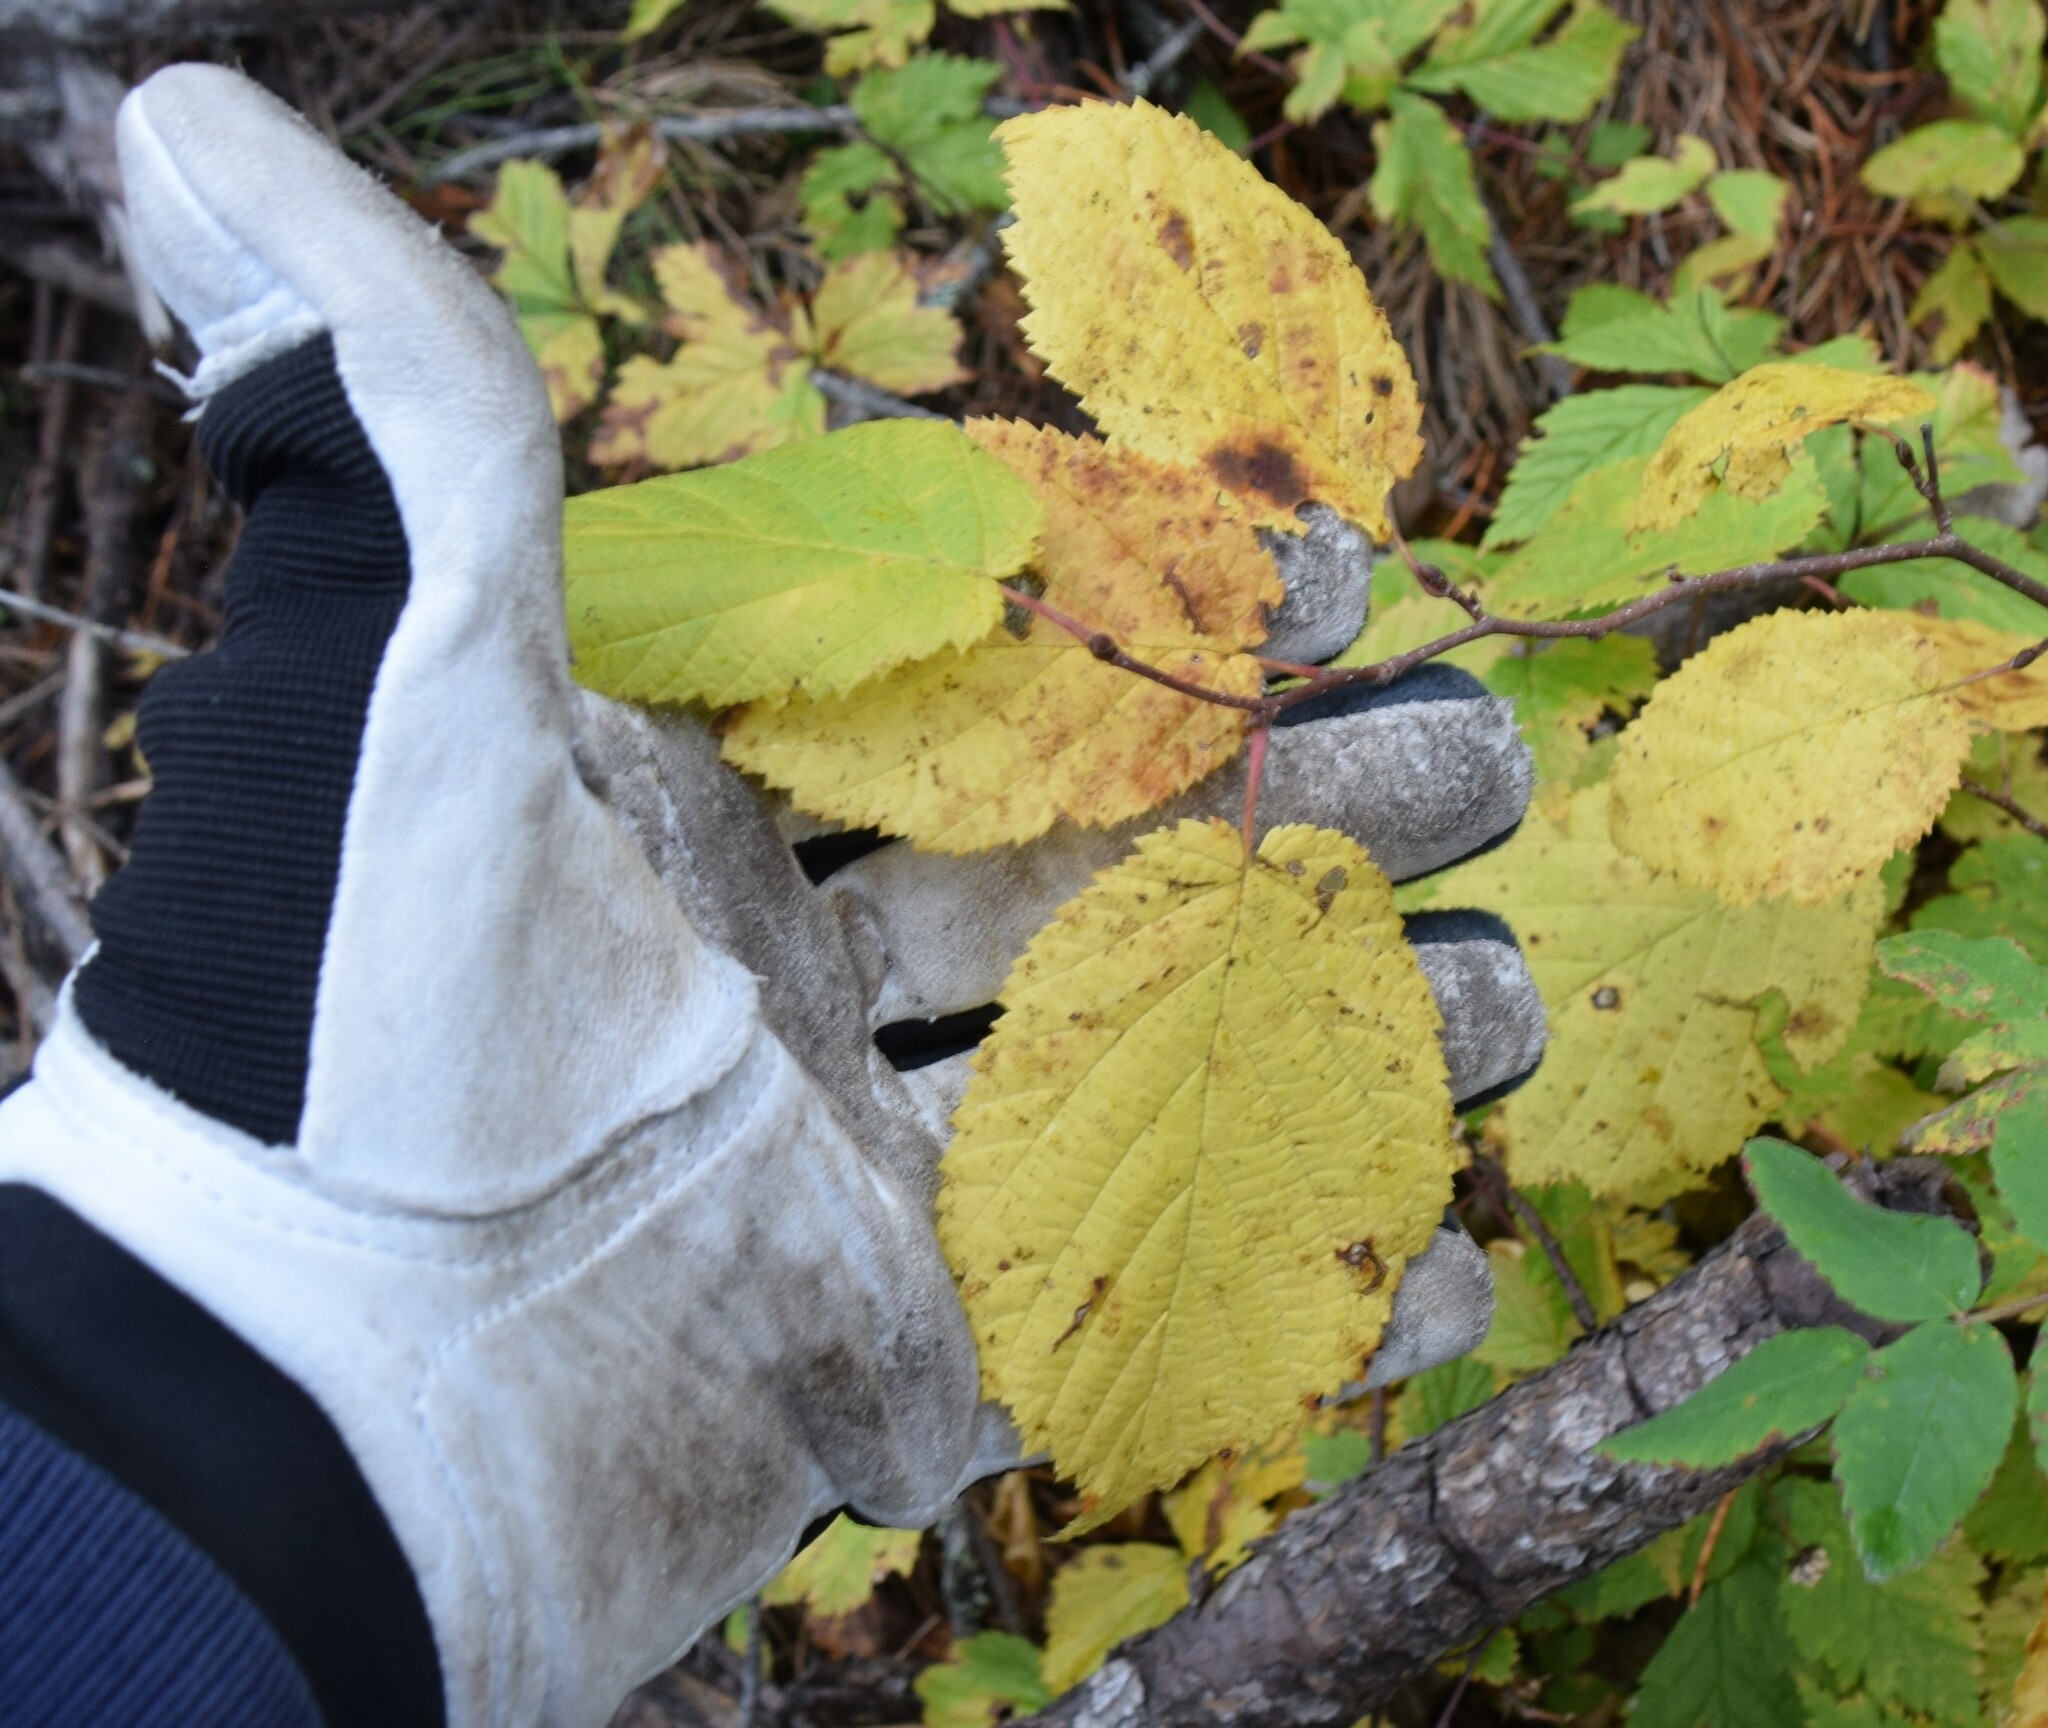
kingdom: Plantae
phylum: Tracheophyta
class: Magnoliopsida
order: Fagales
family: Betulaceae
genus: Corylus
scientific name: Corylus cornuta
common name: Beaked hazel
